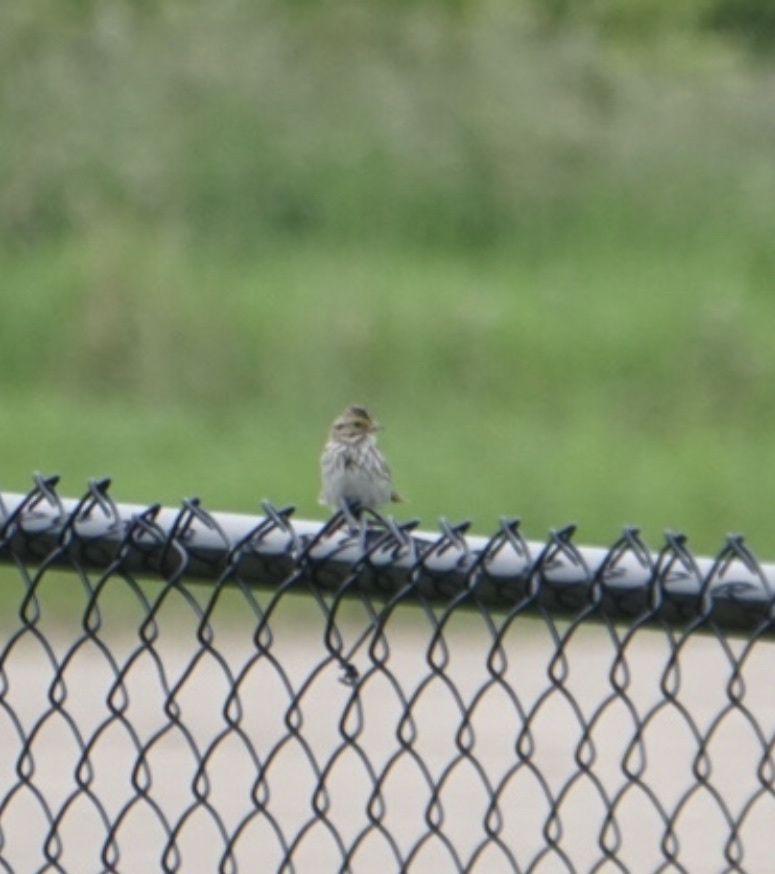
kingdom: Animalia
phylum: Chordata
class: Aves
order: Passeriformes
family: Passerellidae
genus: Passerculus
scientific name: Passerculus sandwichensis
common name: Savannah sparrow
